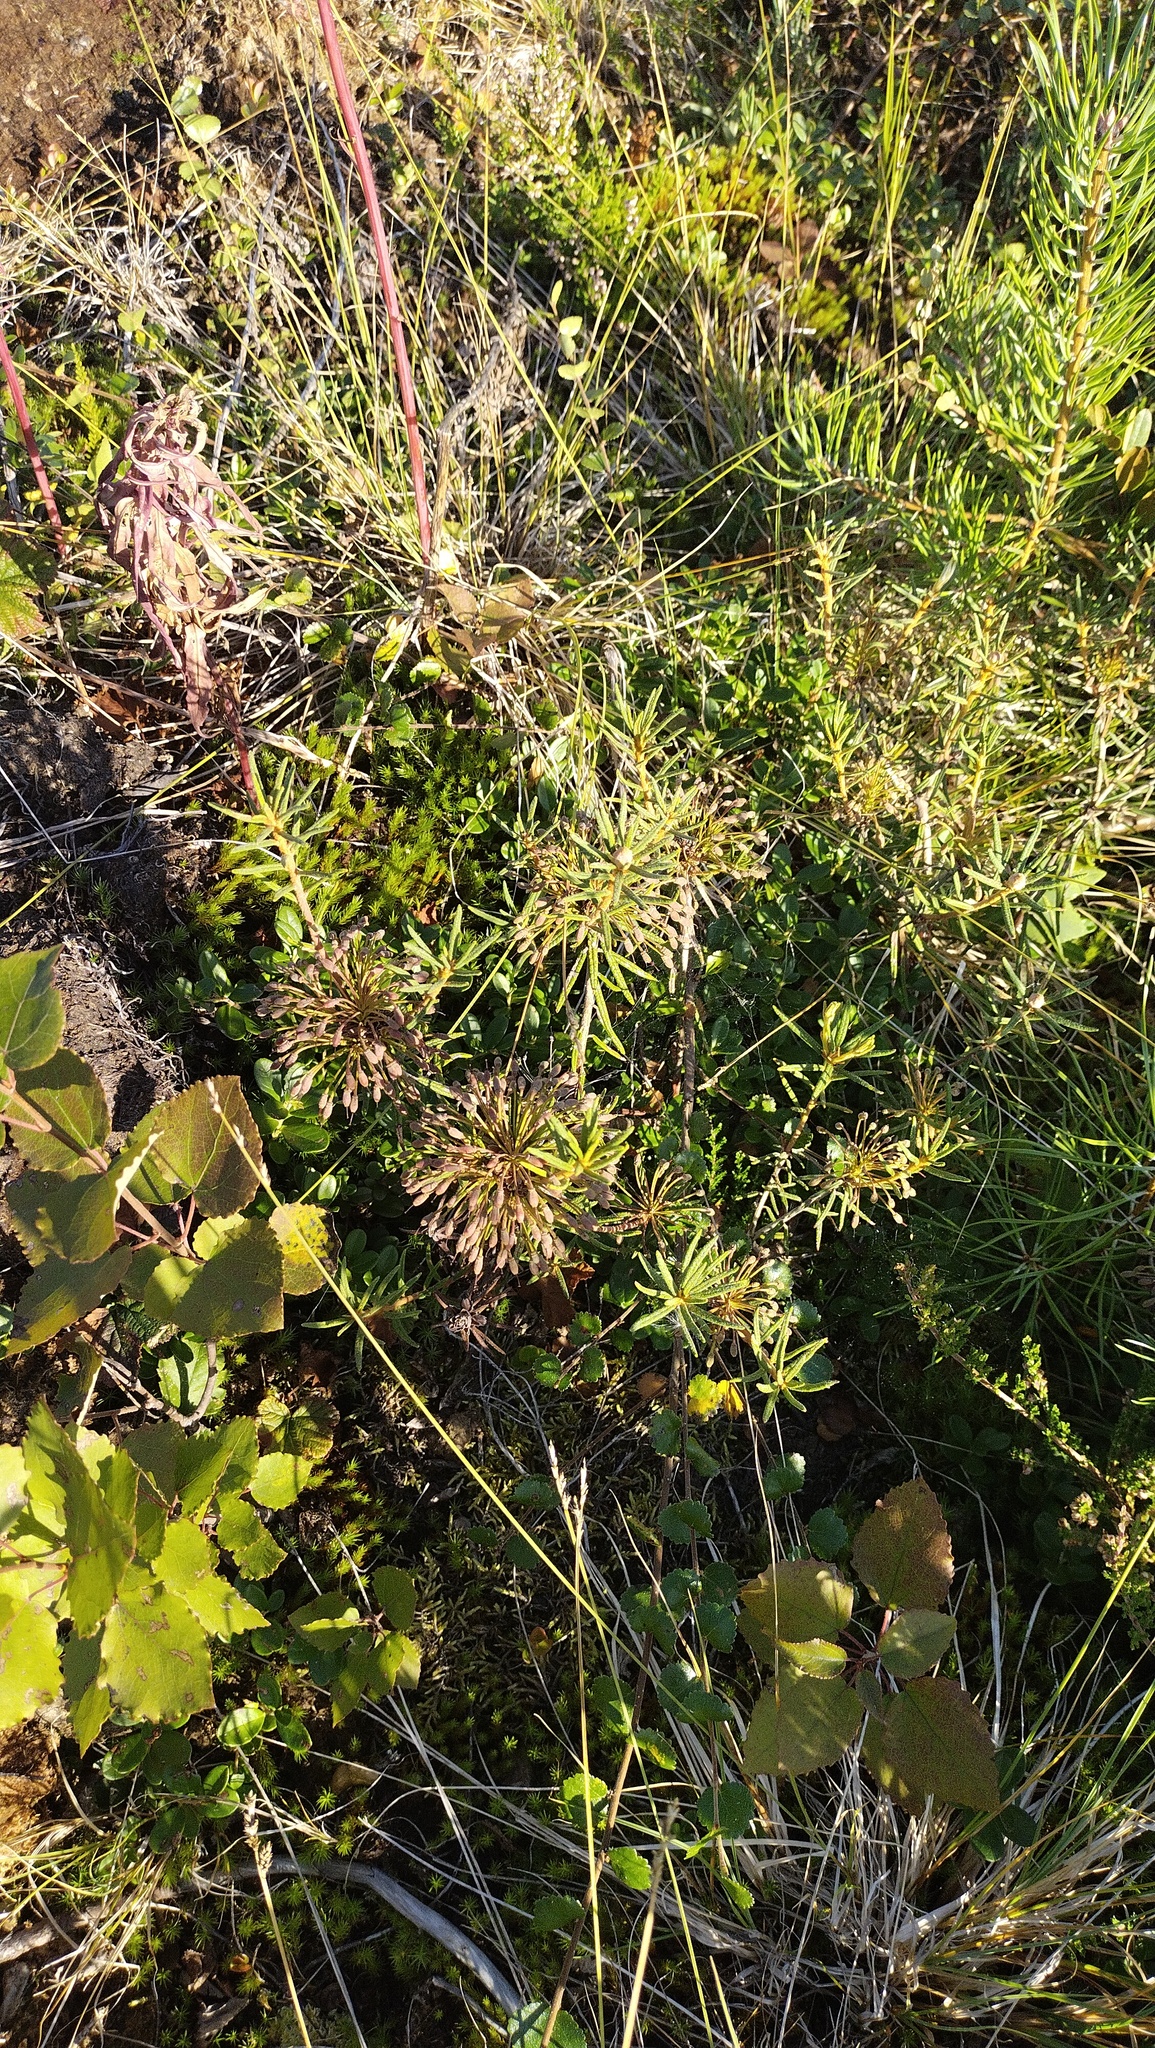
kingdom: Plantae
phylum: Tracheophyta
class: Magnoliopsida
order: Ericales
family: Ericaceae
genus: Rhododendron
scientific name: Rhododendron tomentosum
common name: Marsh labrador tea
